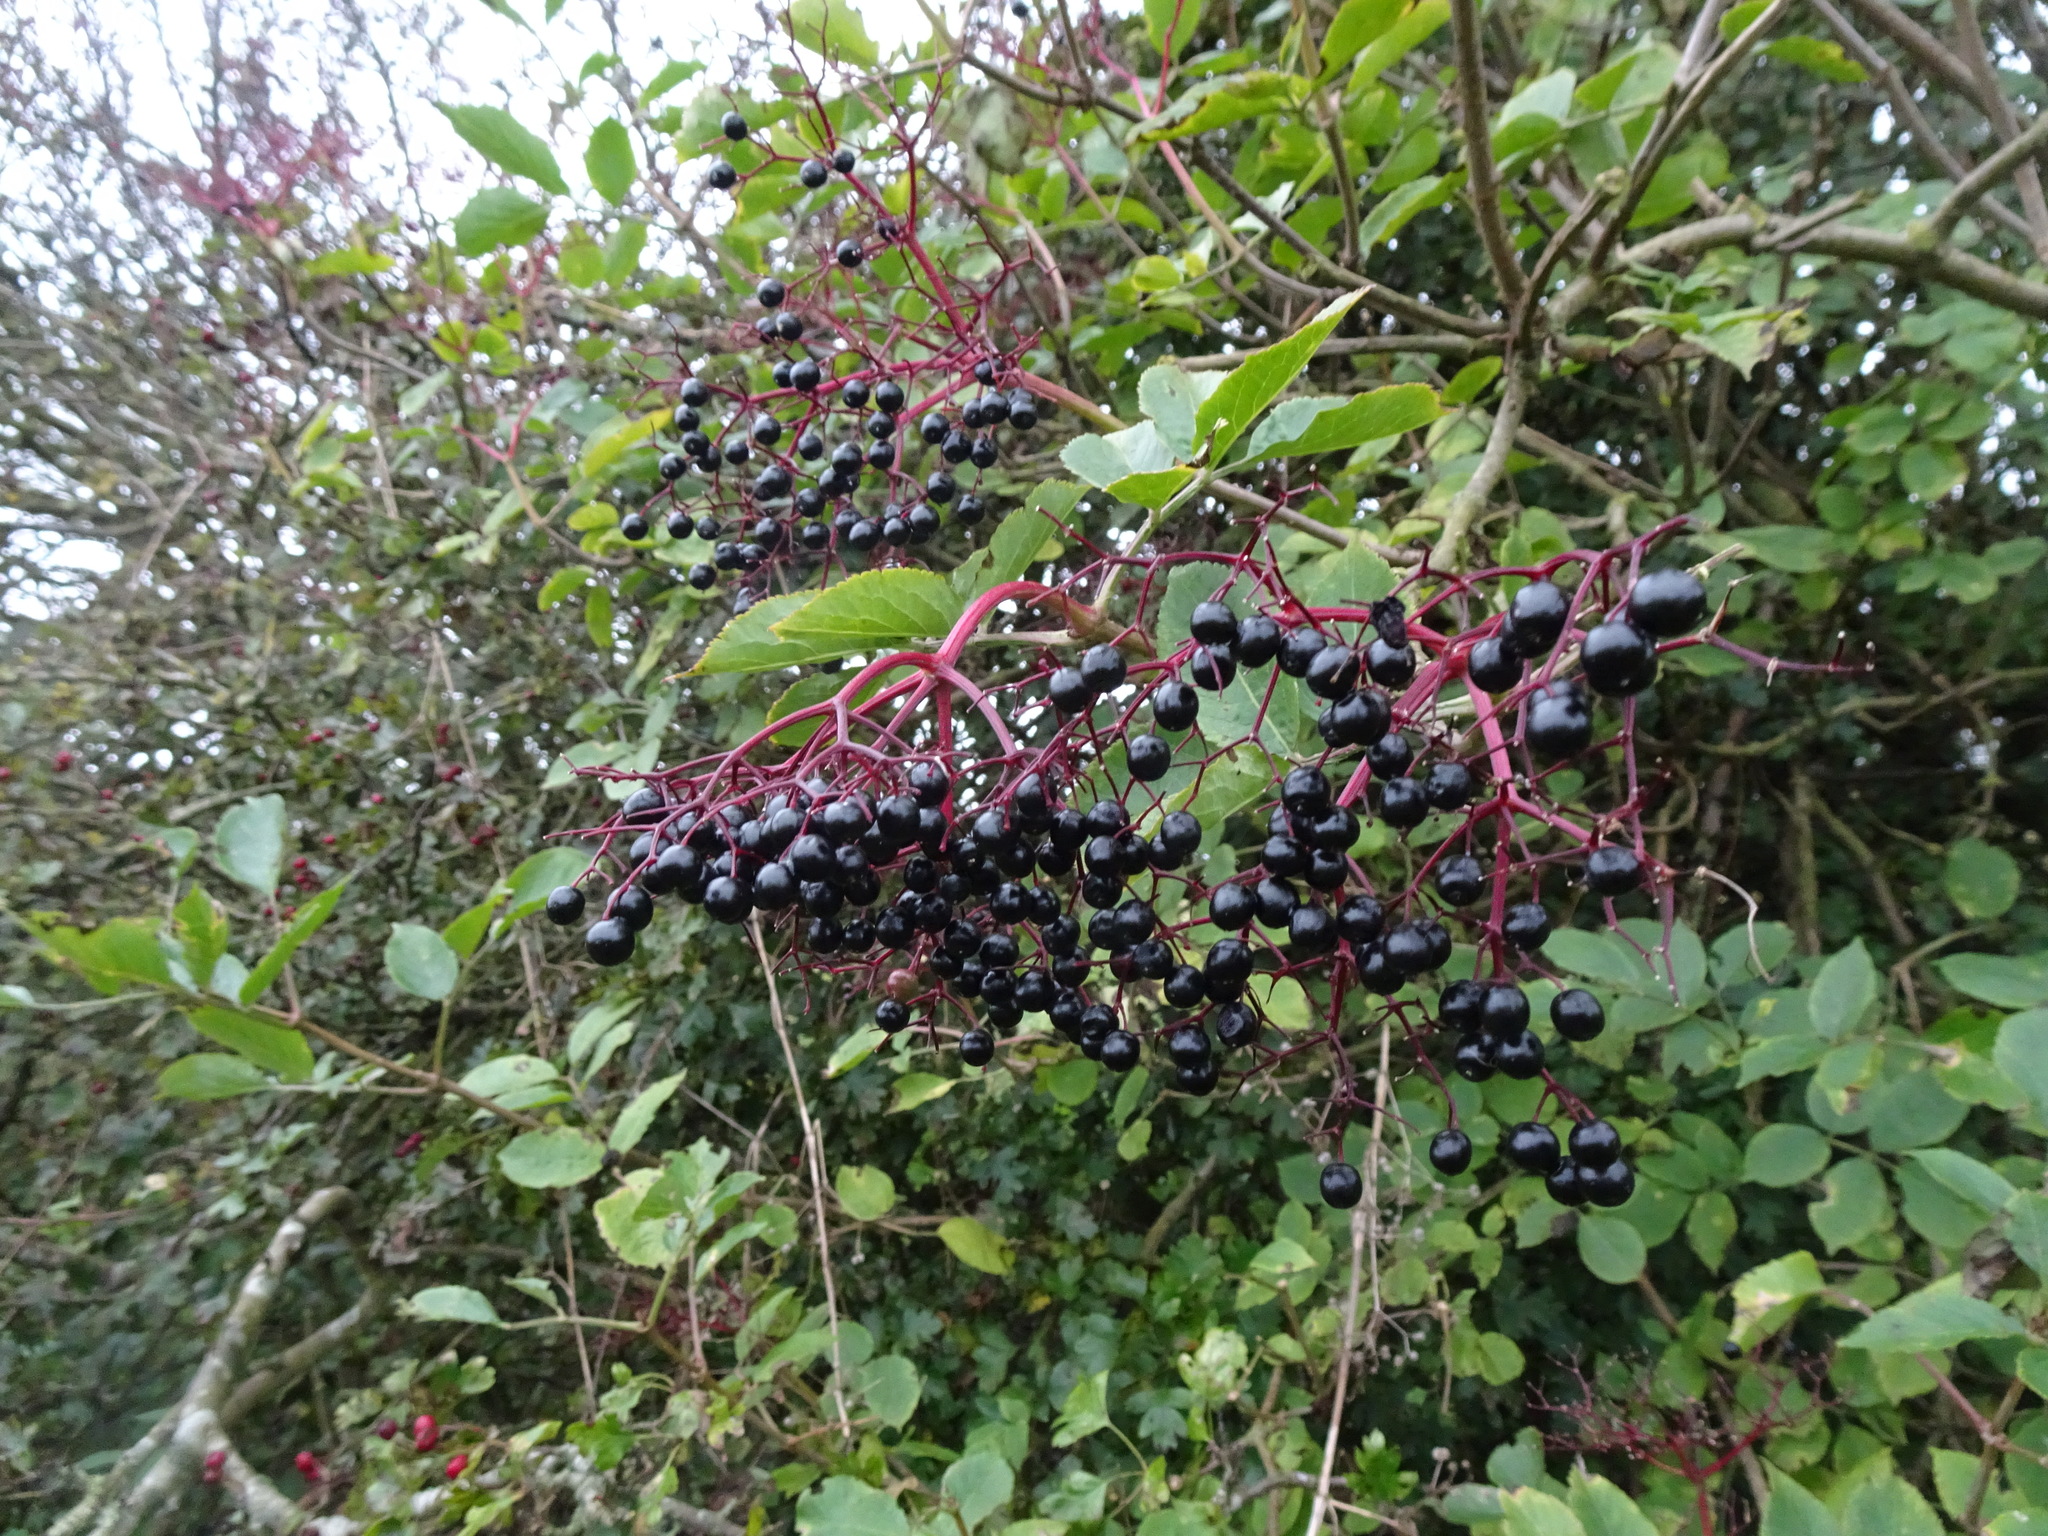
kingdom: Plantae
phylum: Tracheophyta
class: Magnoliopsida
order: Dipsacales
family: Viburnaceae
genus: Sambucus
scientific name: Sambucus nigra
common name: Elder
